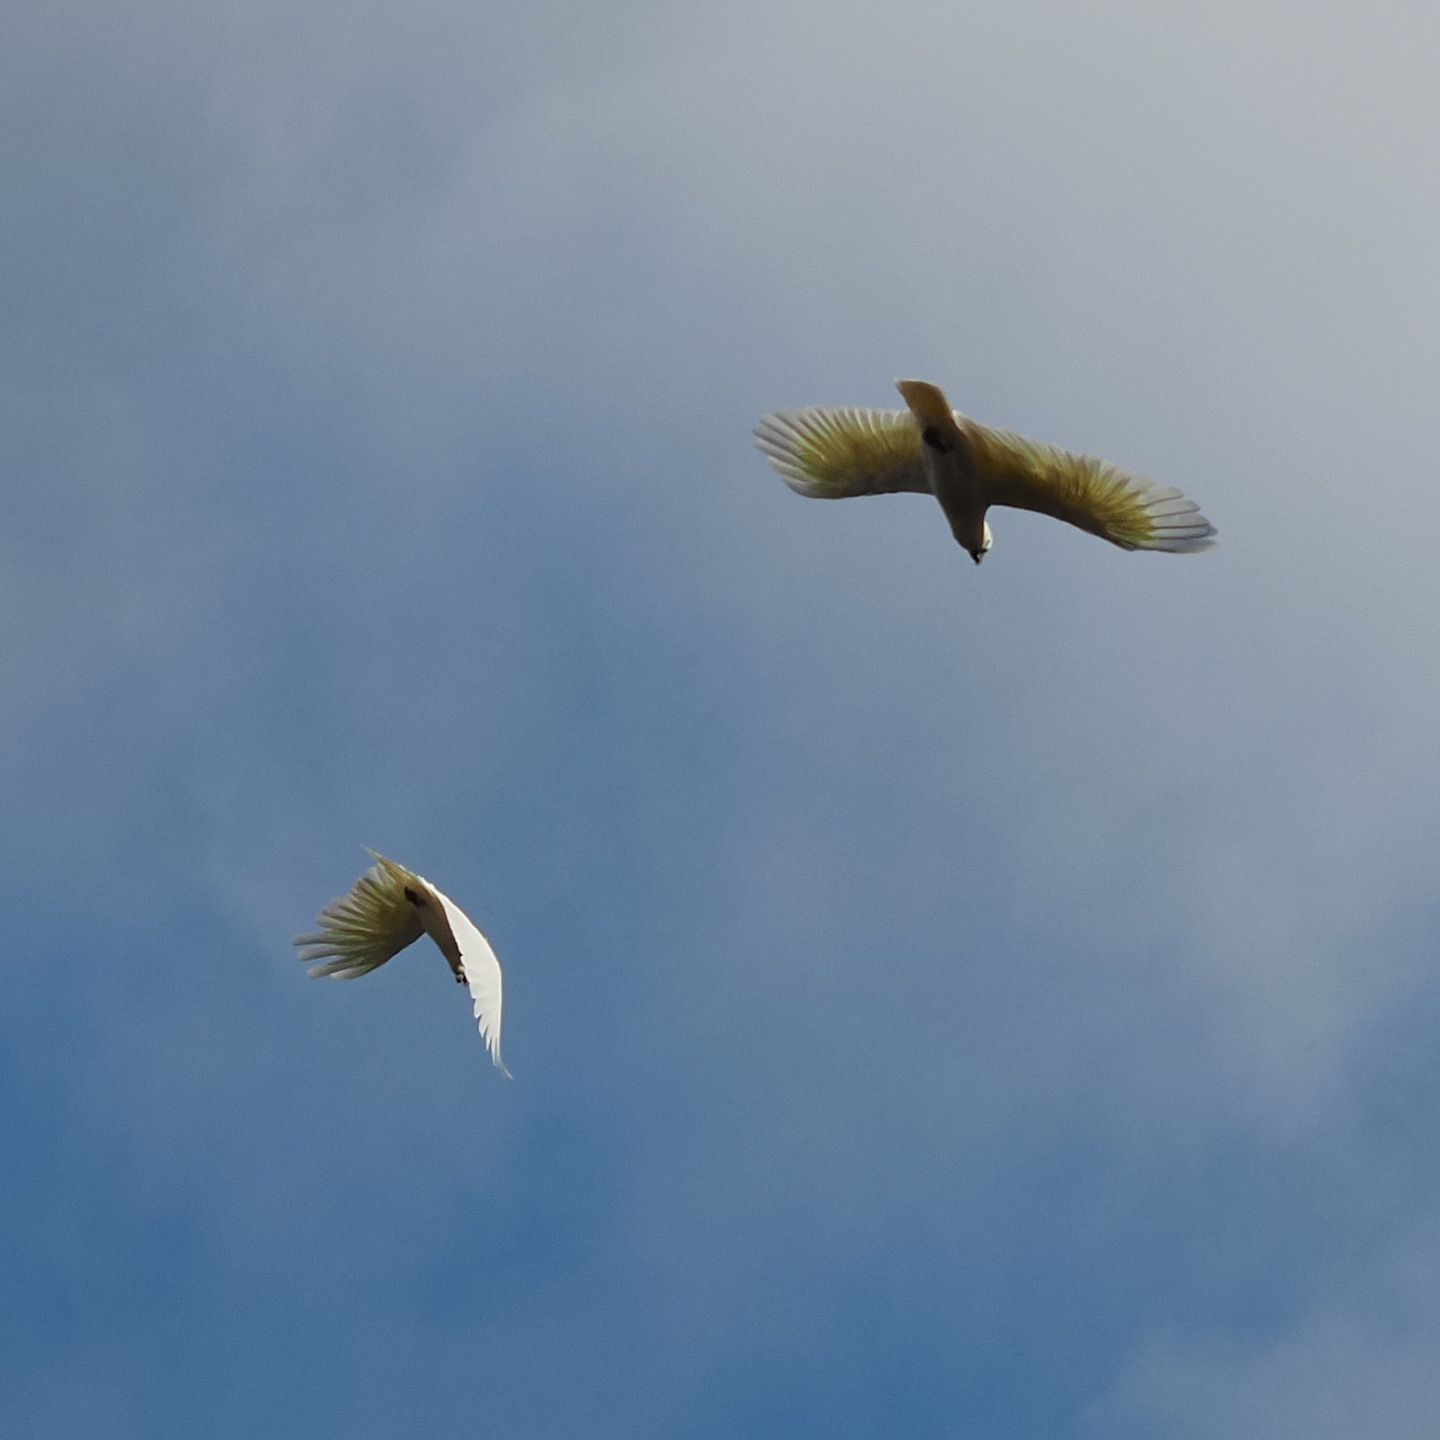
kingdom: Animalia
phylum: Chordata
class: Aves
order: Psittaciformes
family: Psittacidae
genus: Cacatua
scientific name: Cacatua galerita
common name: Sulphur-crested cockatoo
